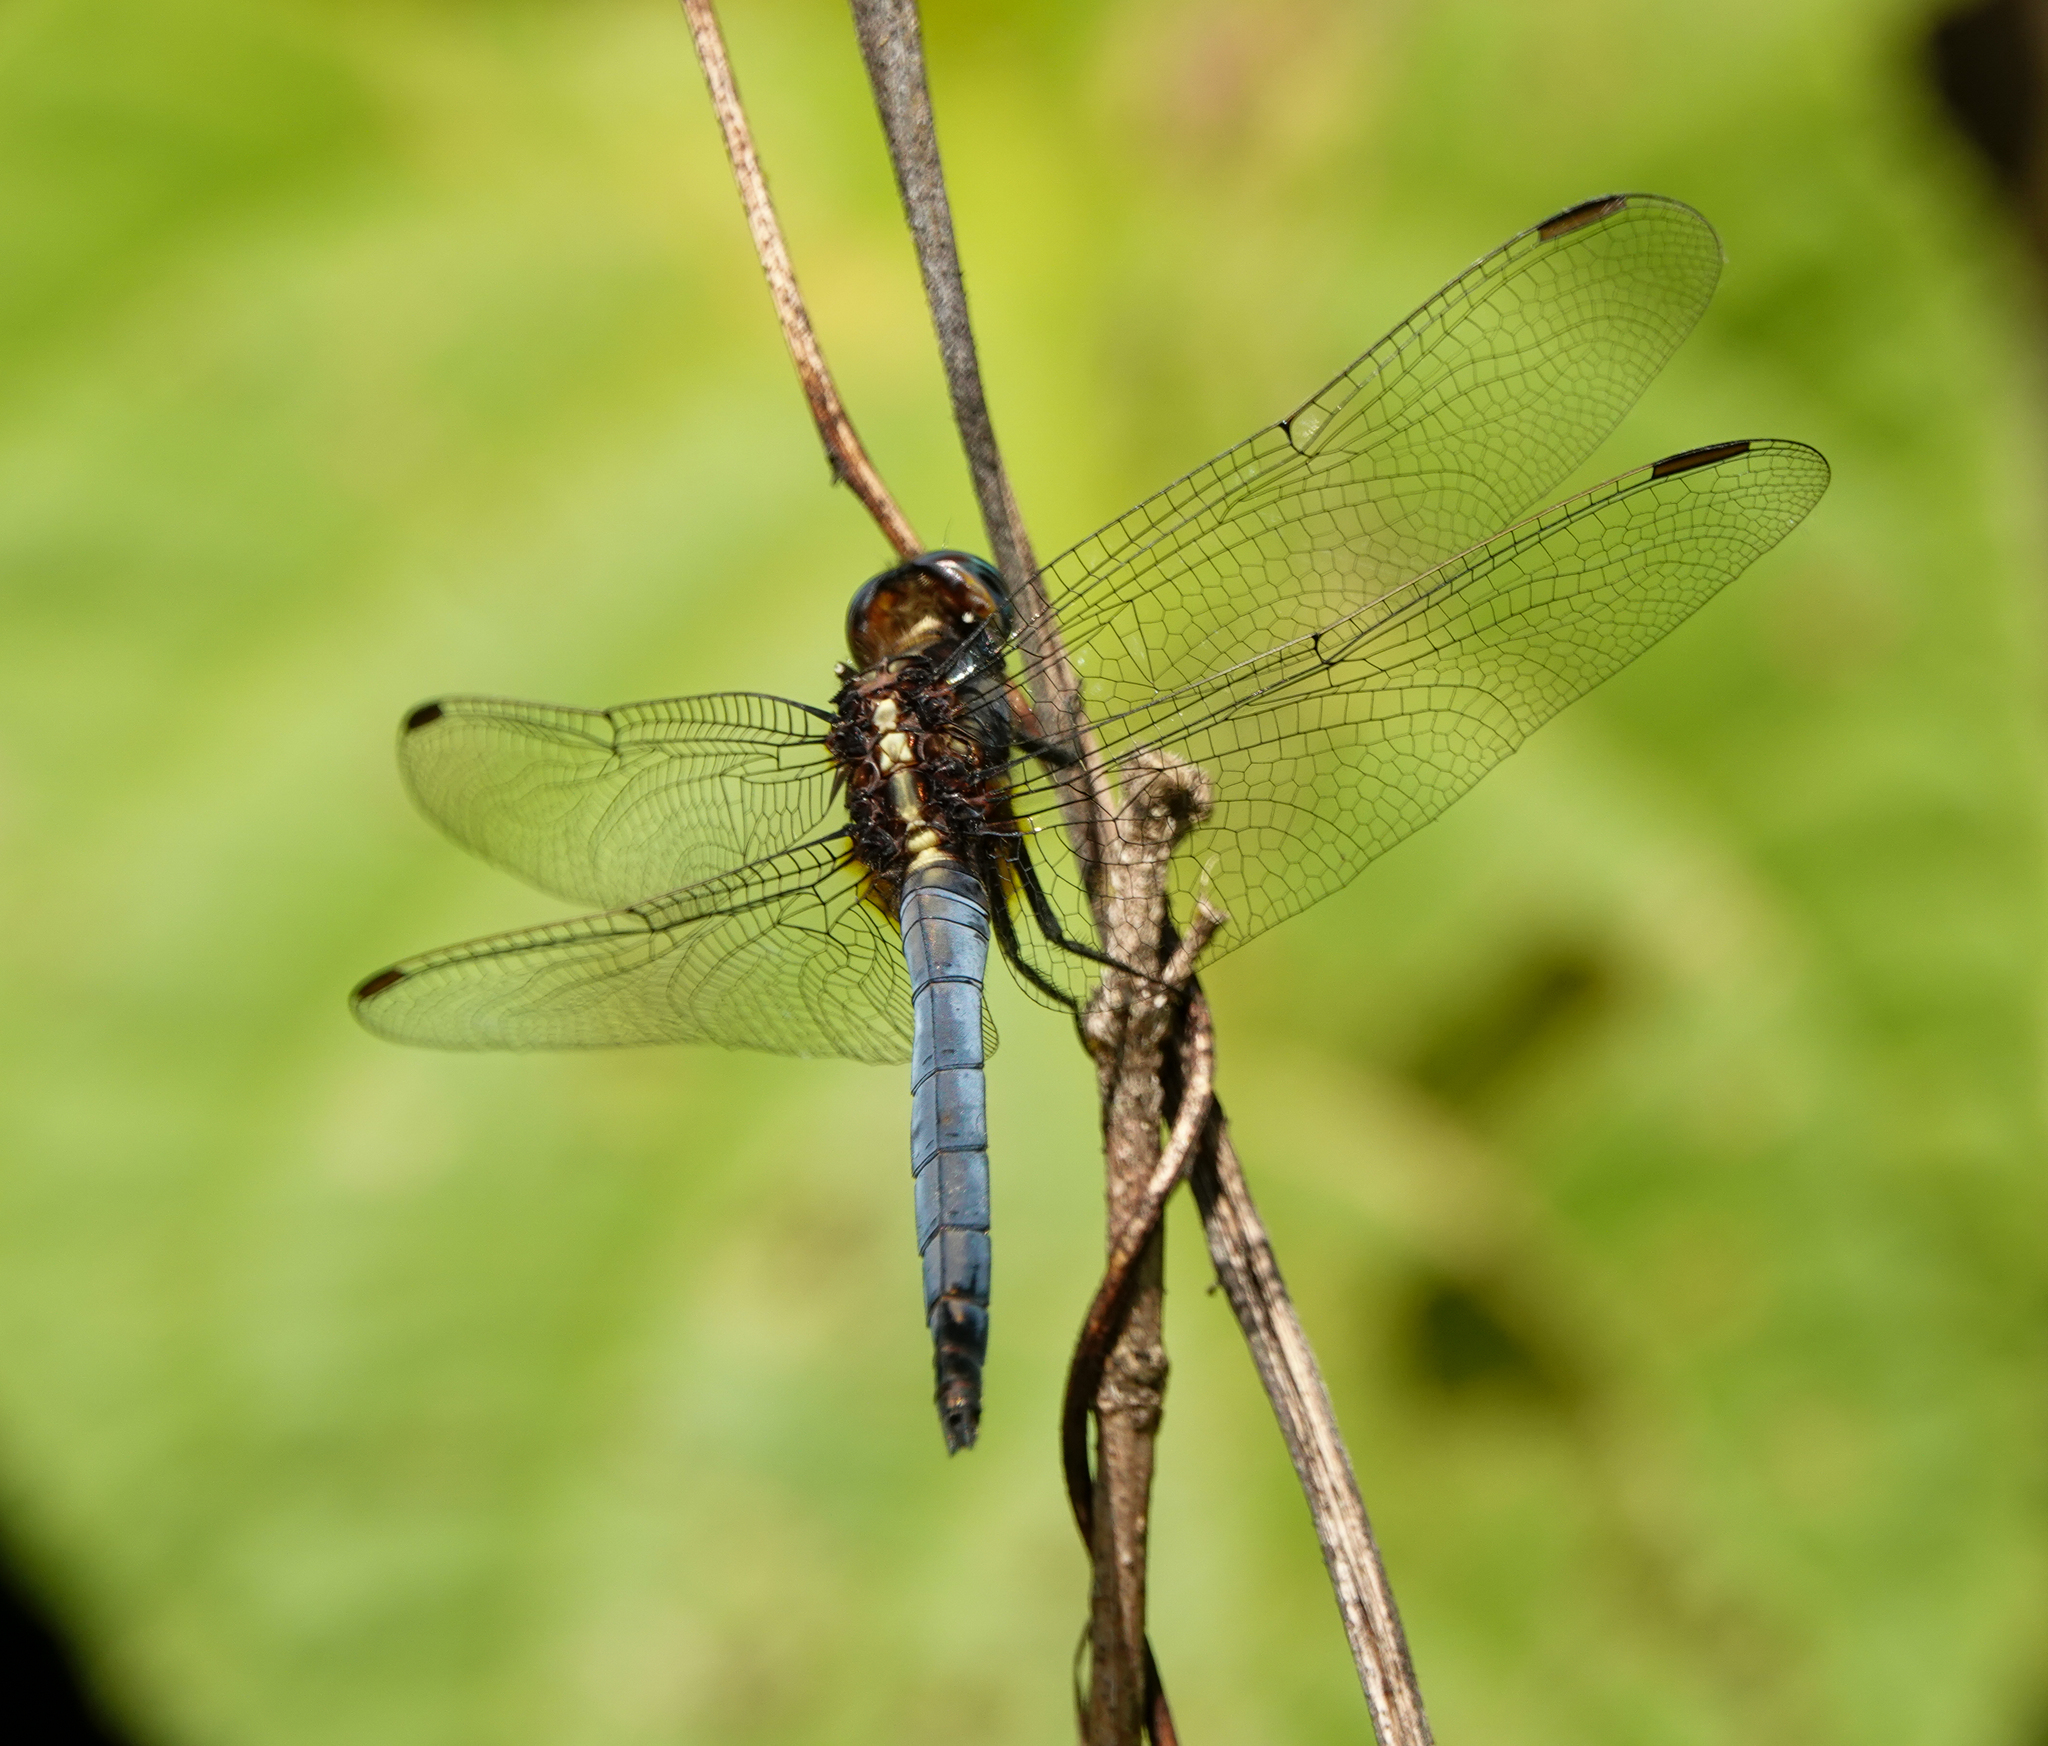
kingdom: Animalia
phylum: Arthropoda
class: Insecta
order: Odonata
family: Libellulidae
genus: Orthetrum
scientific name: Orthetrum glaucum
